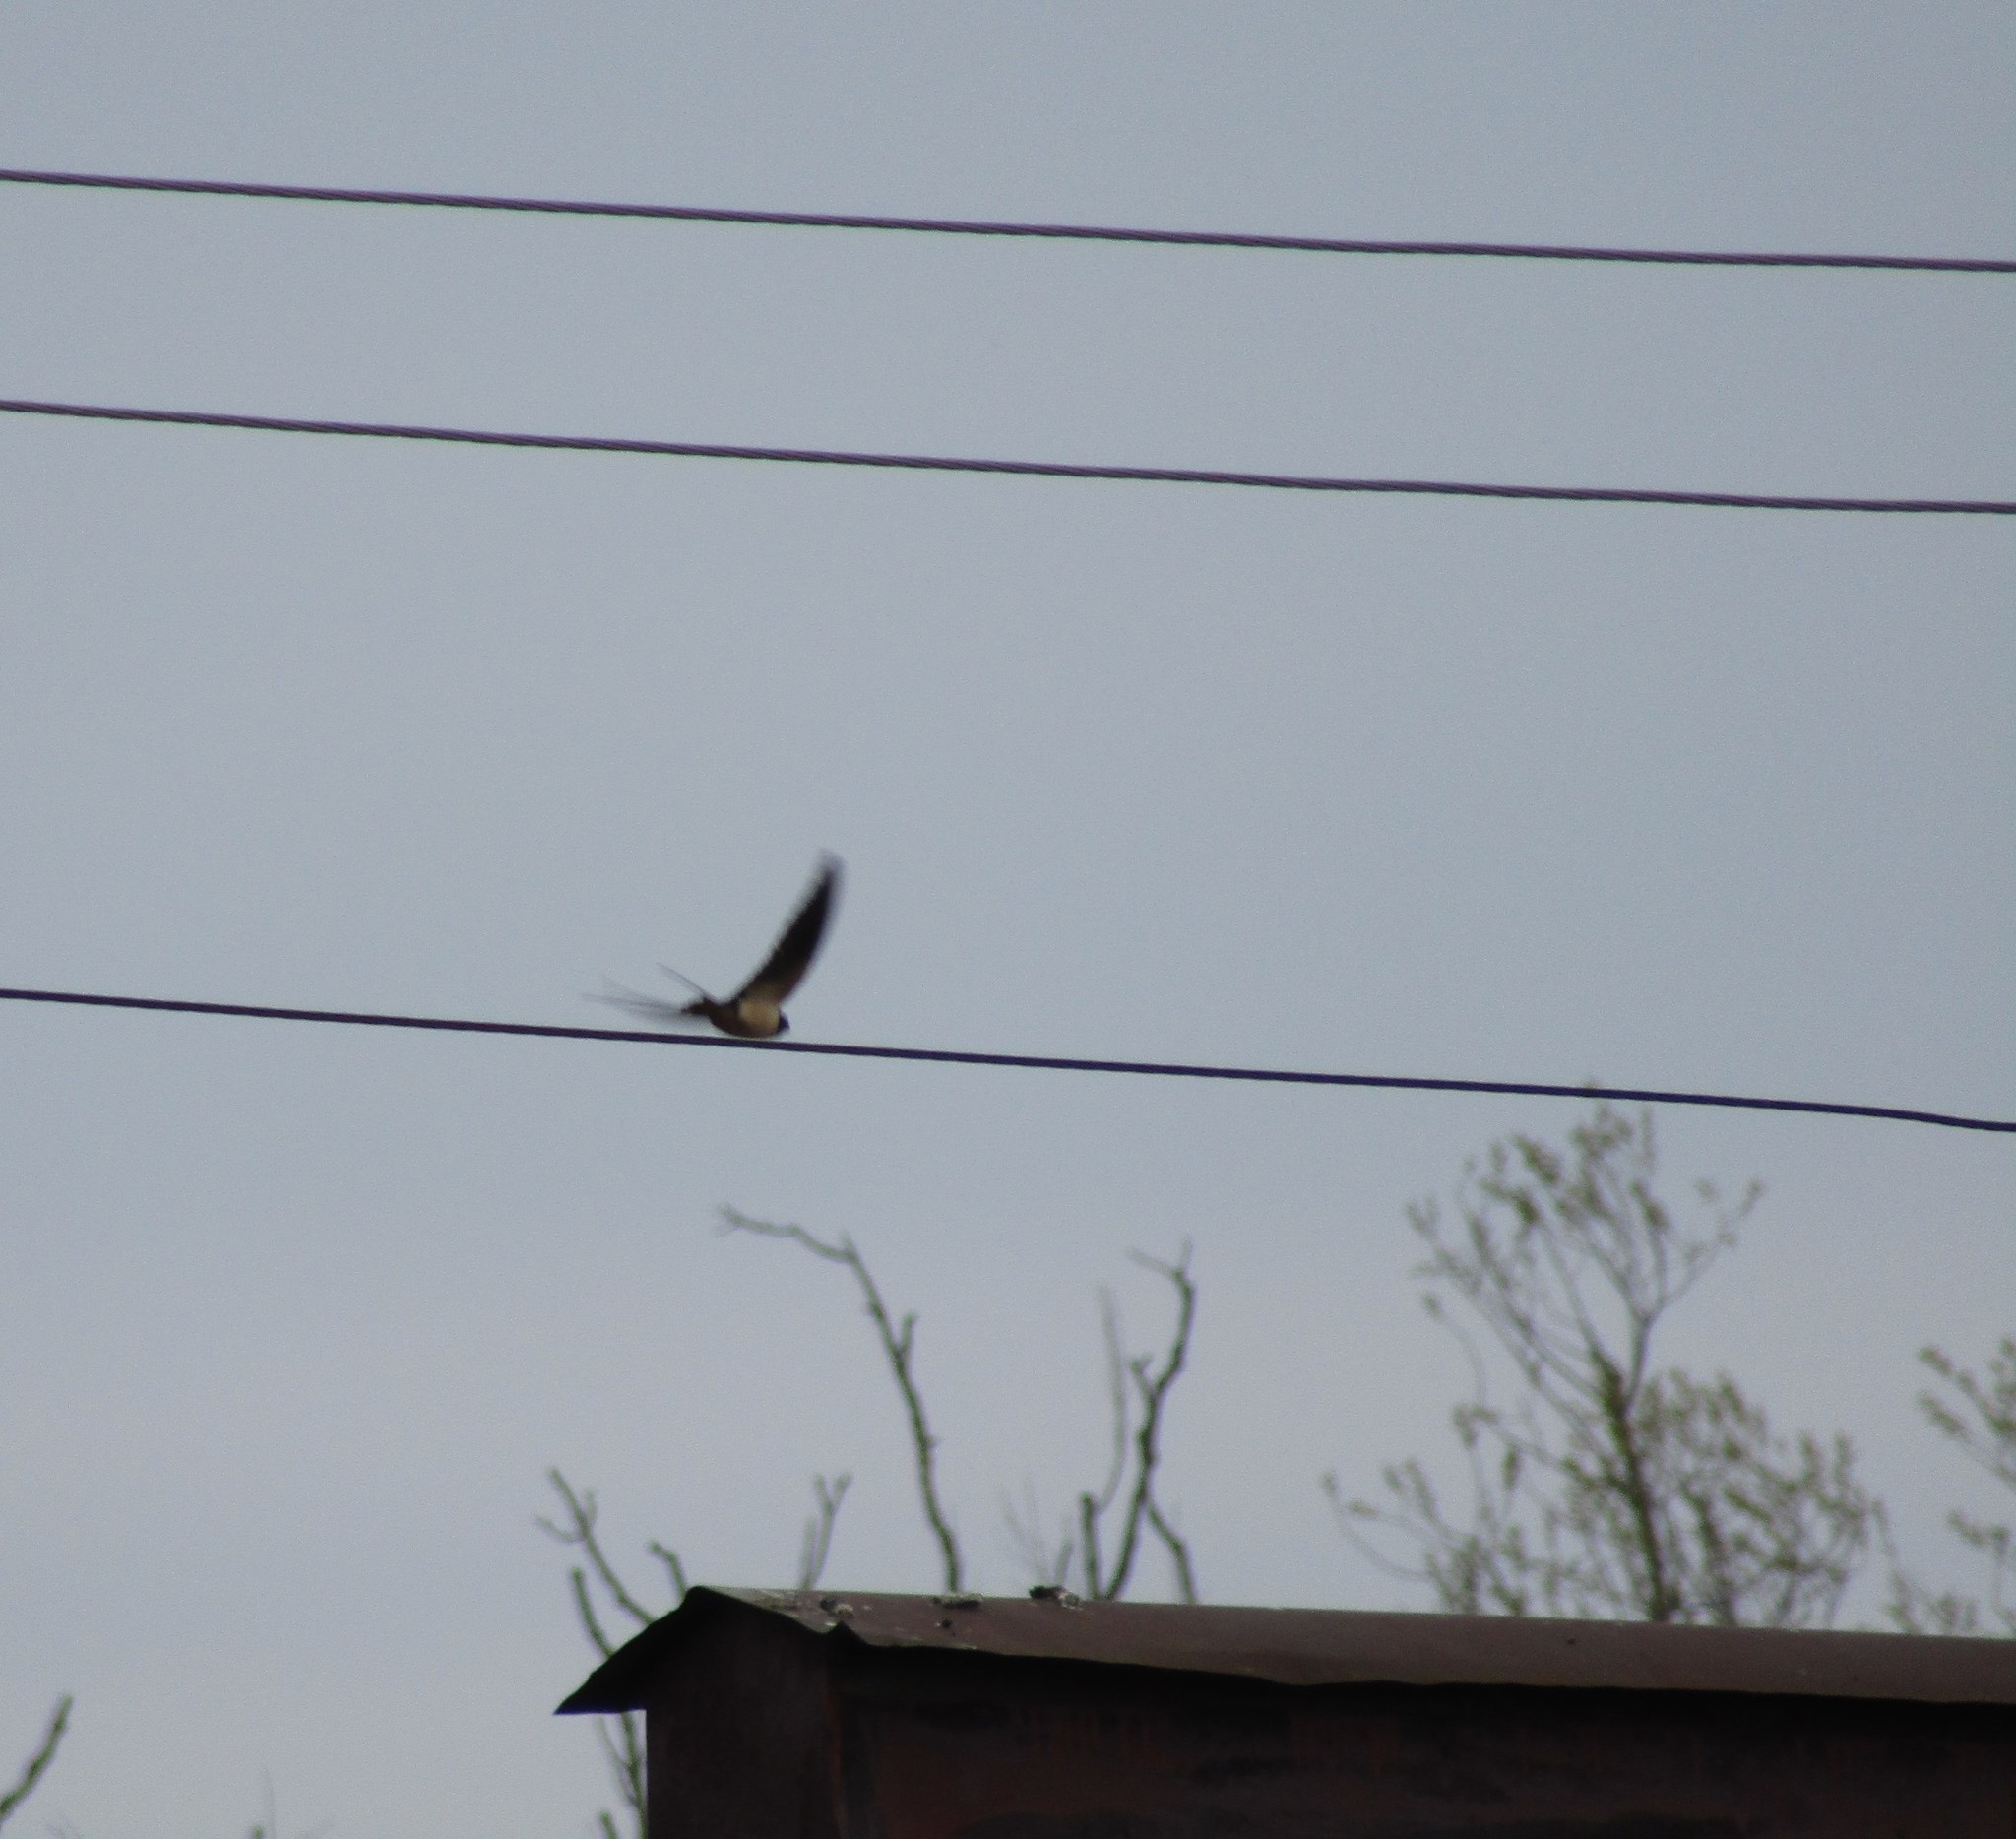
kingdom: Animalia
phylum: Chordata
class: Aves
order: Passeriformes
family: Hirundinidae
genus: Hirundo
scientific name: Hirundo rustica
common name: Barn swallow
